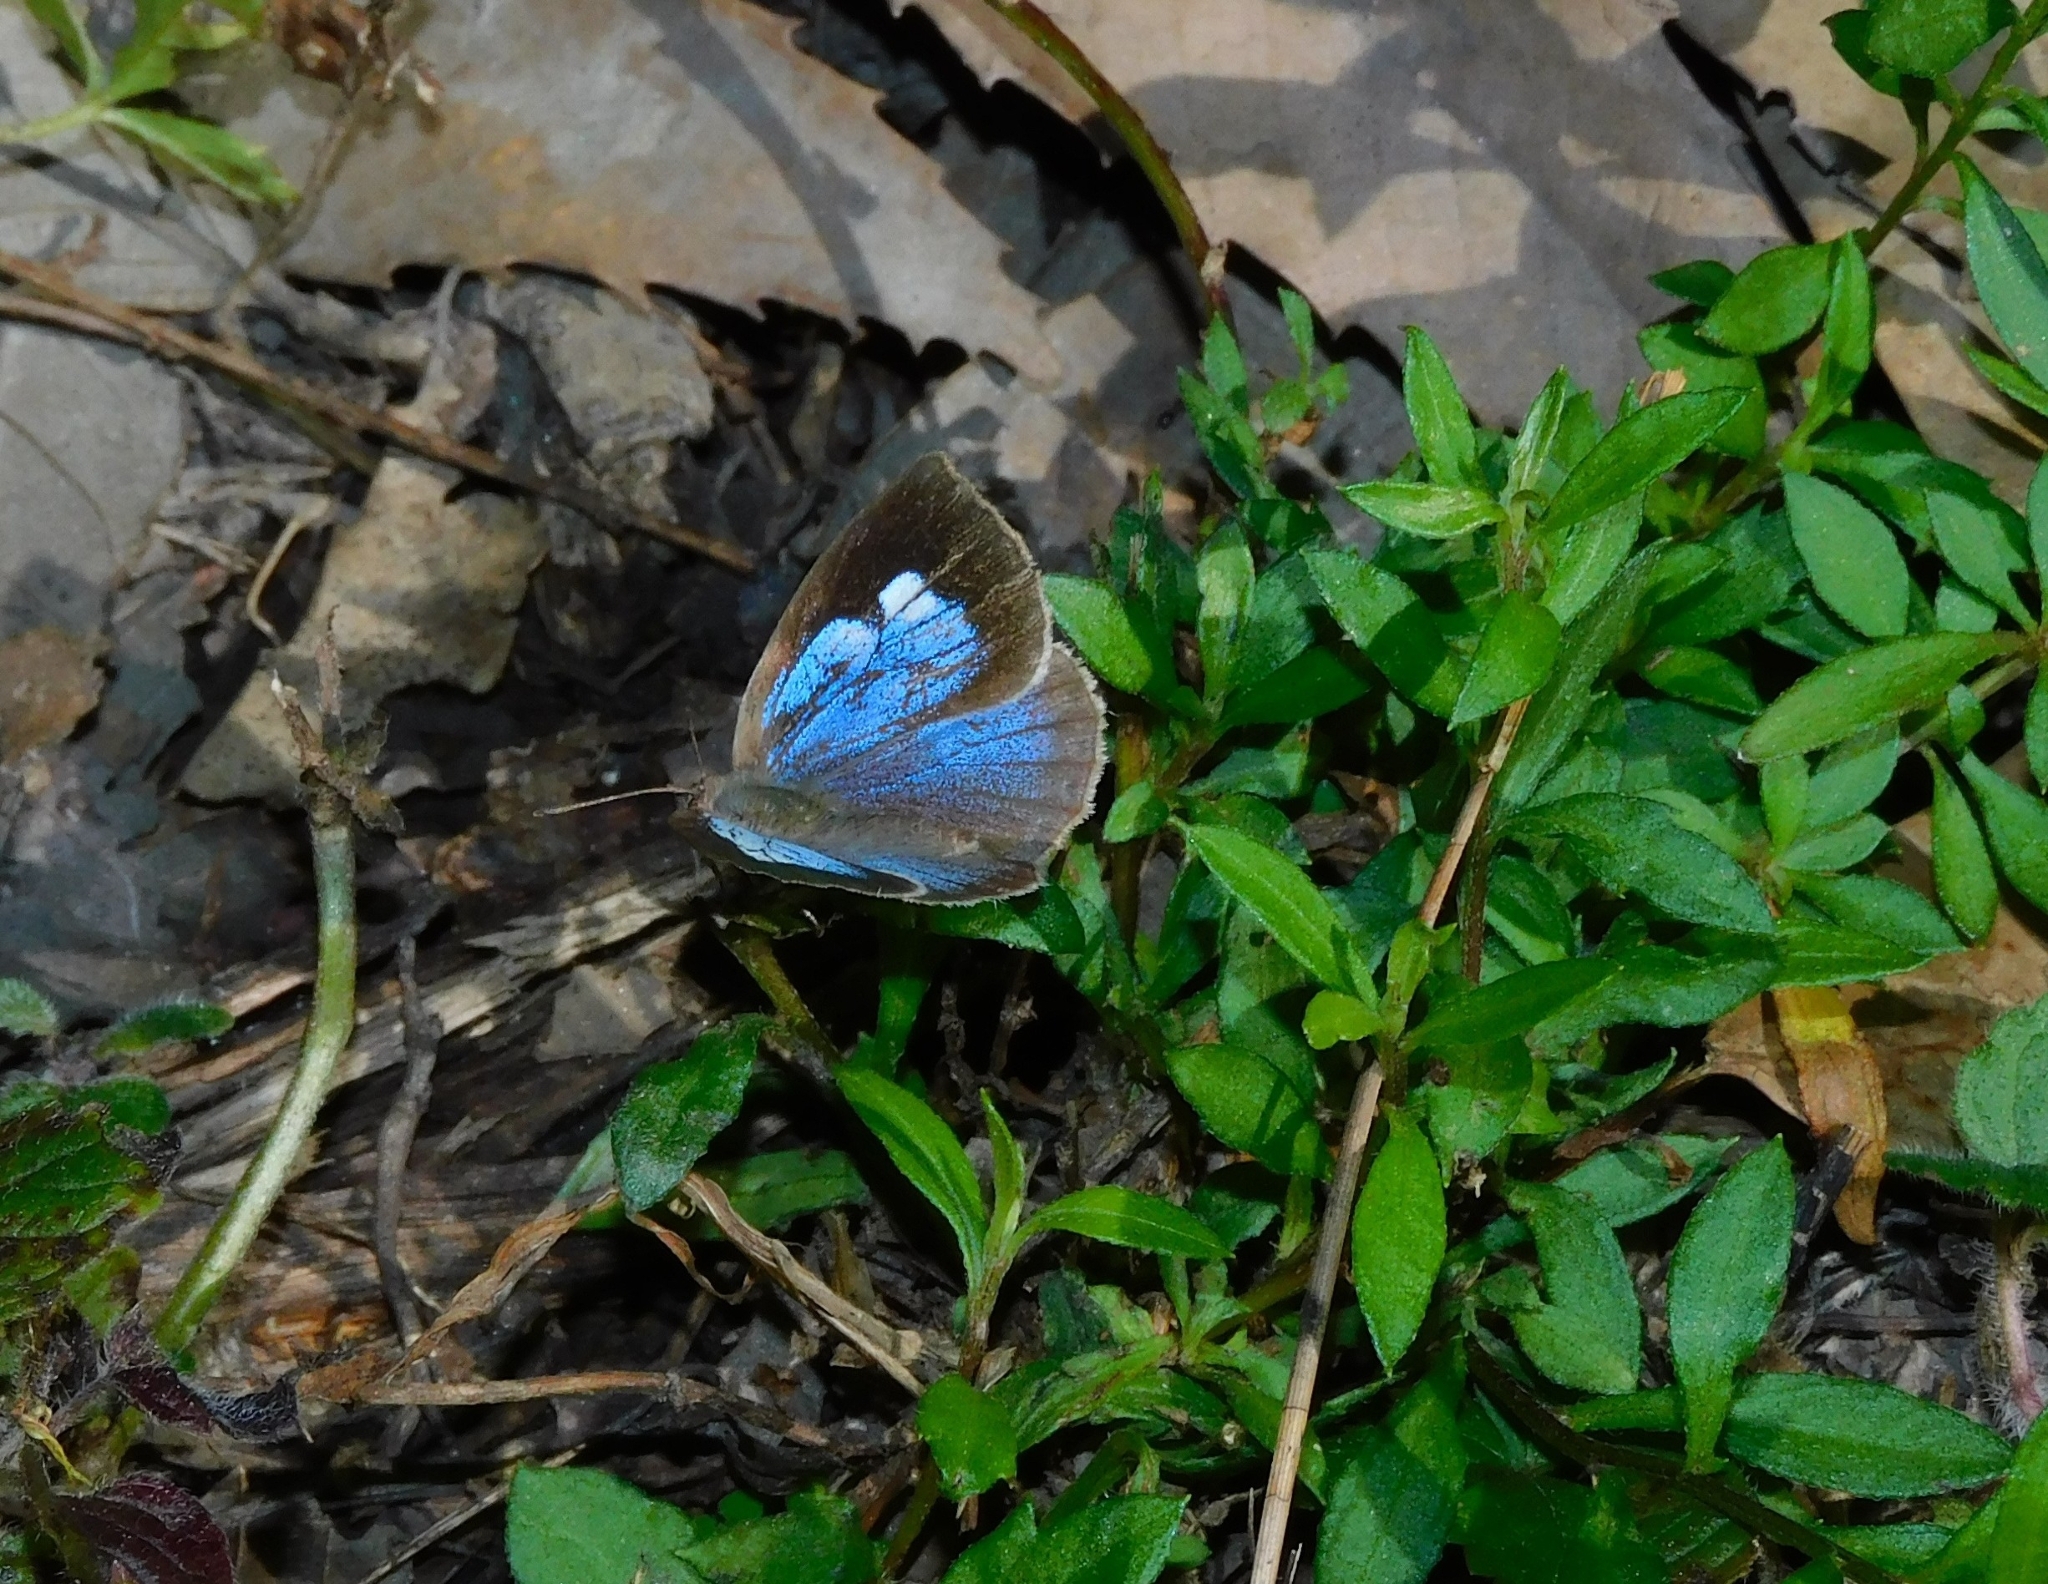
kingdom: Animalia
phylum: Arthropoda
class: Insecta
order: Lepidoptera
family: Lycaenidae
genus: Arhopala
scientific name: Arhopala ganesa
